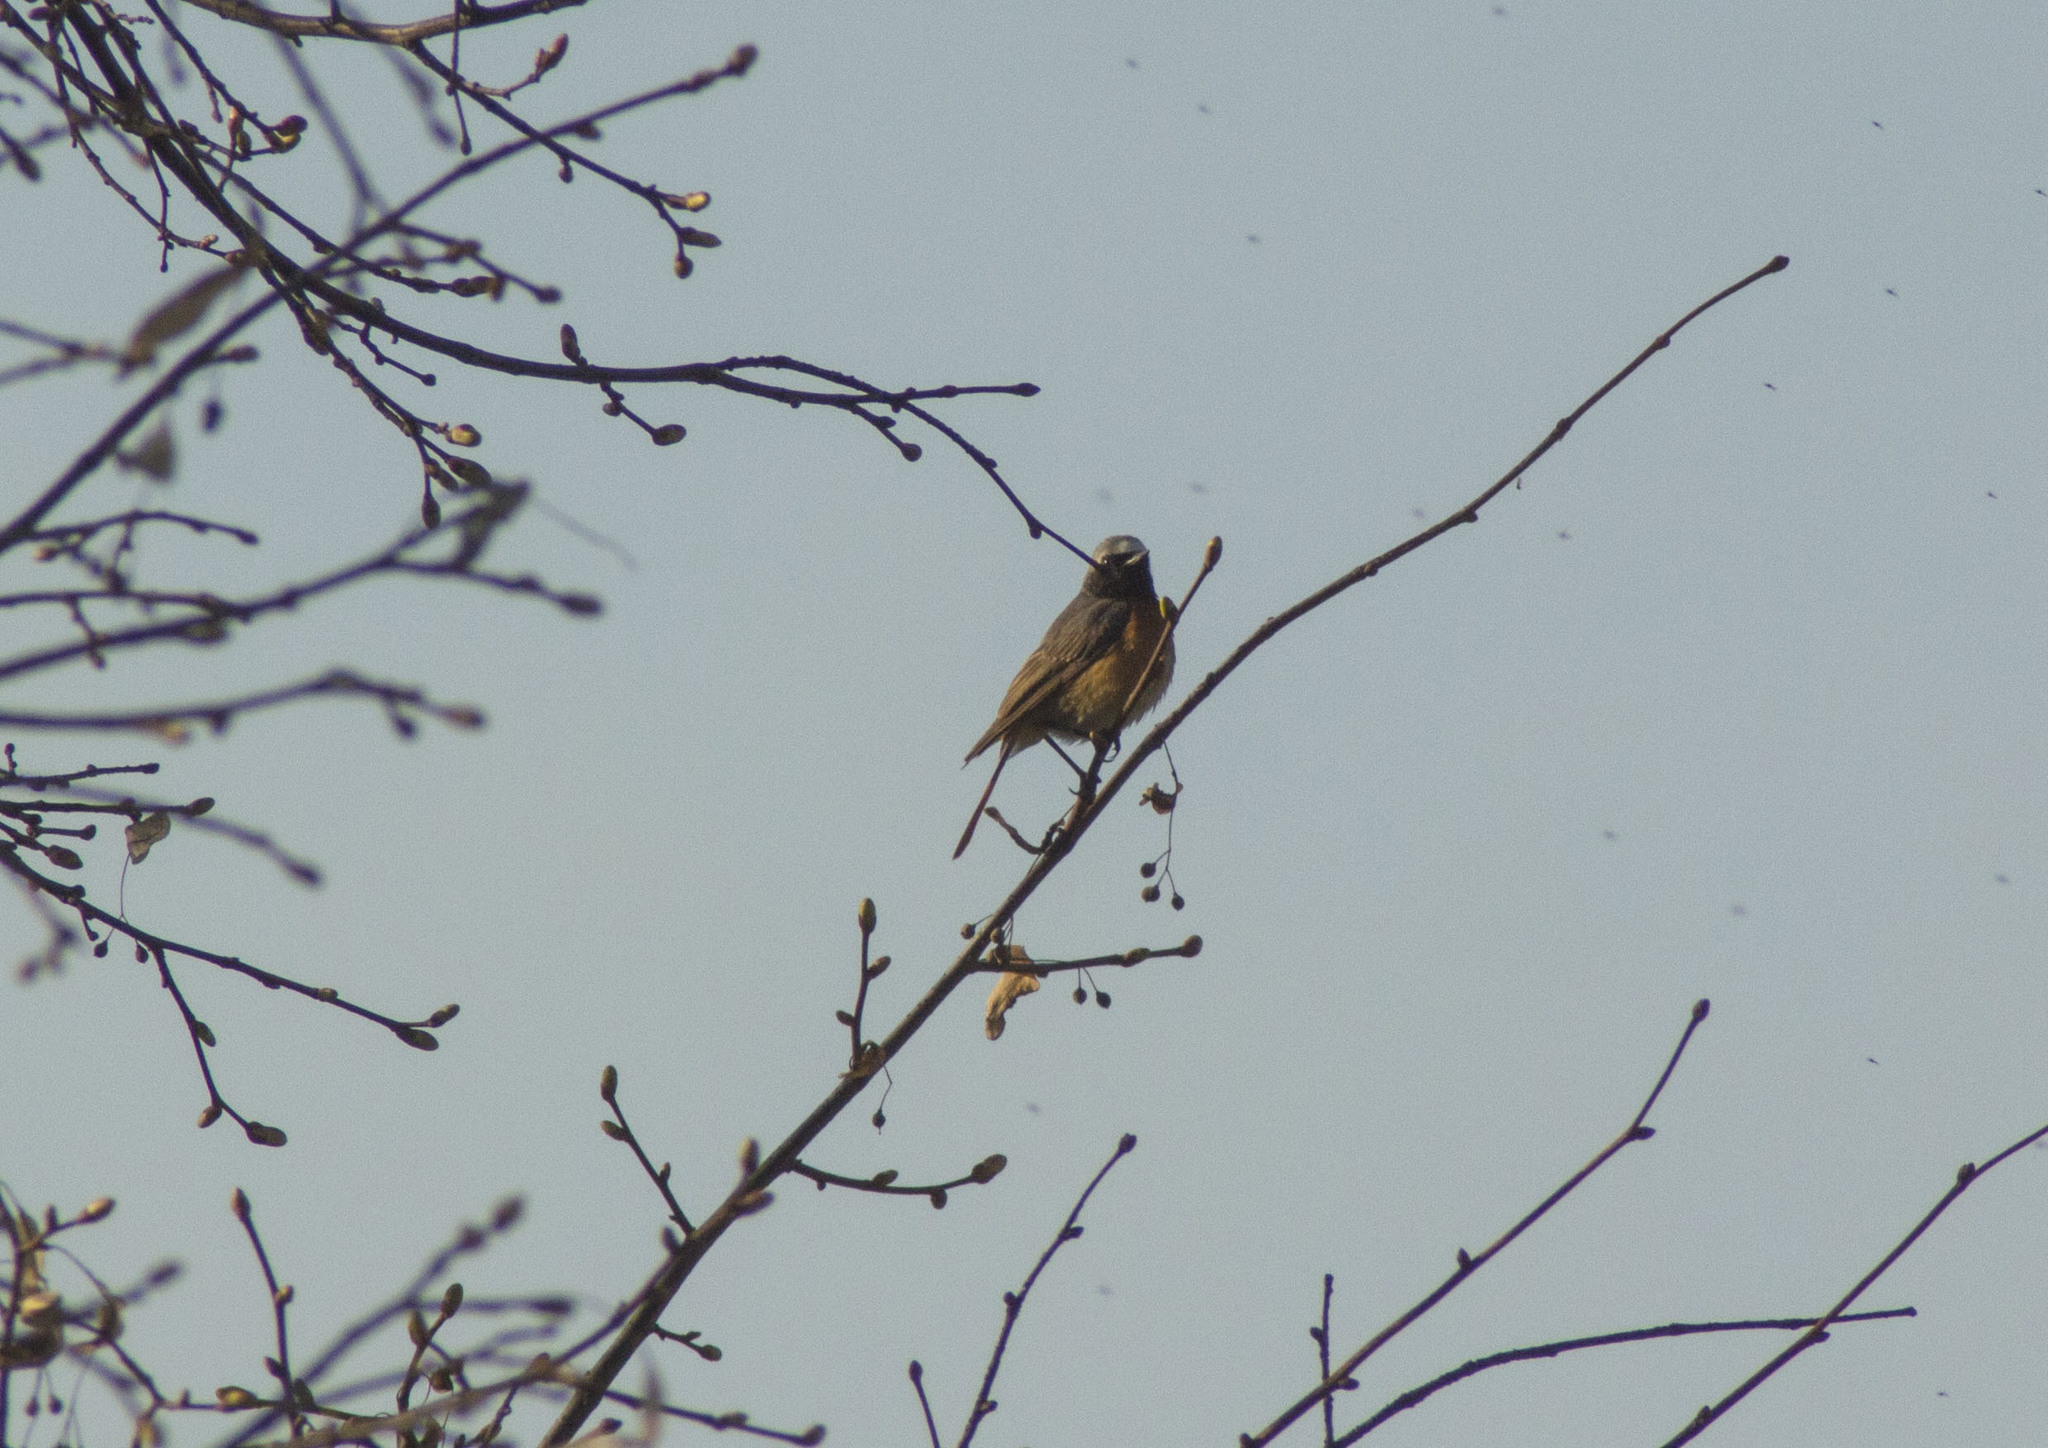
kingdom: Animalia
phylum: Chordata
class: Aves
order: Passeriformes
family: Muscicapidae
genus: Phoenicurus
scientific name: Phoenicurus phoenicurus
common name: Common redstart
